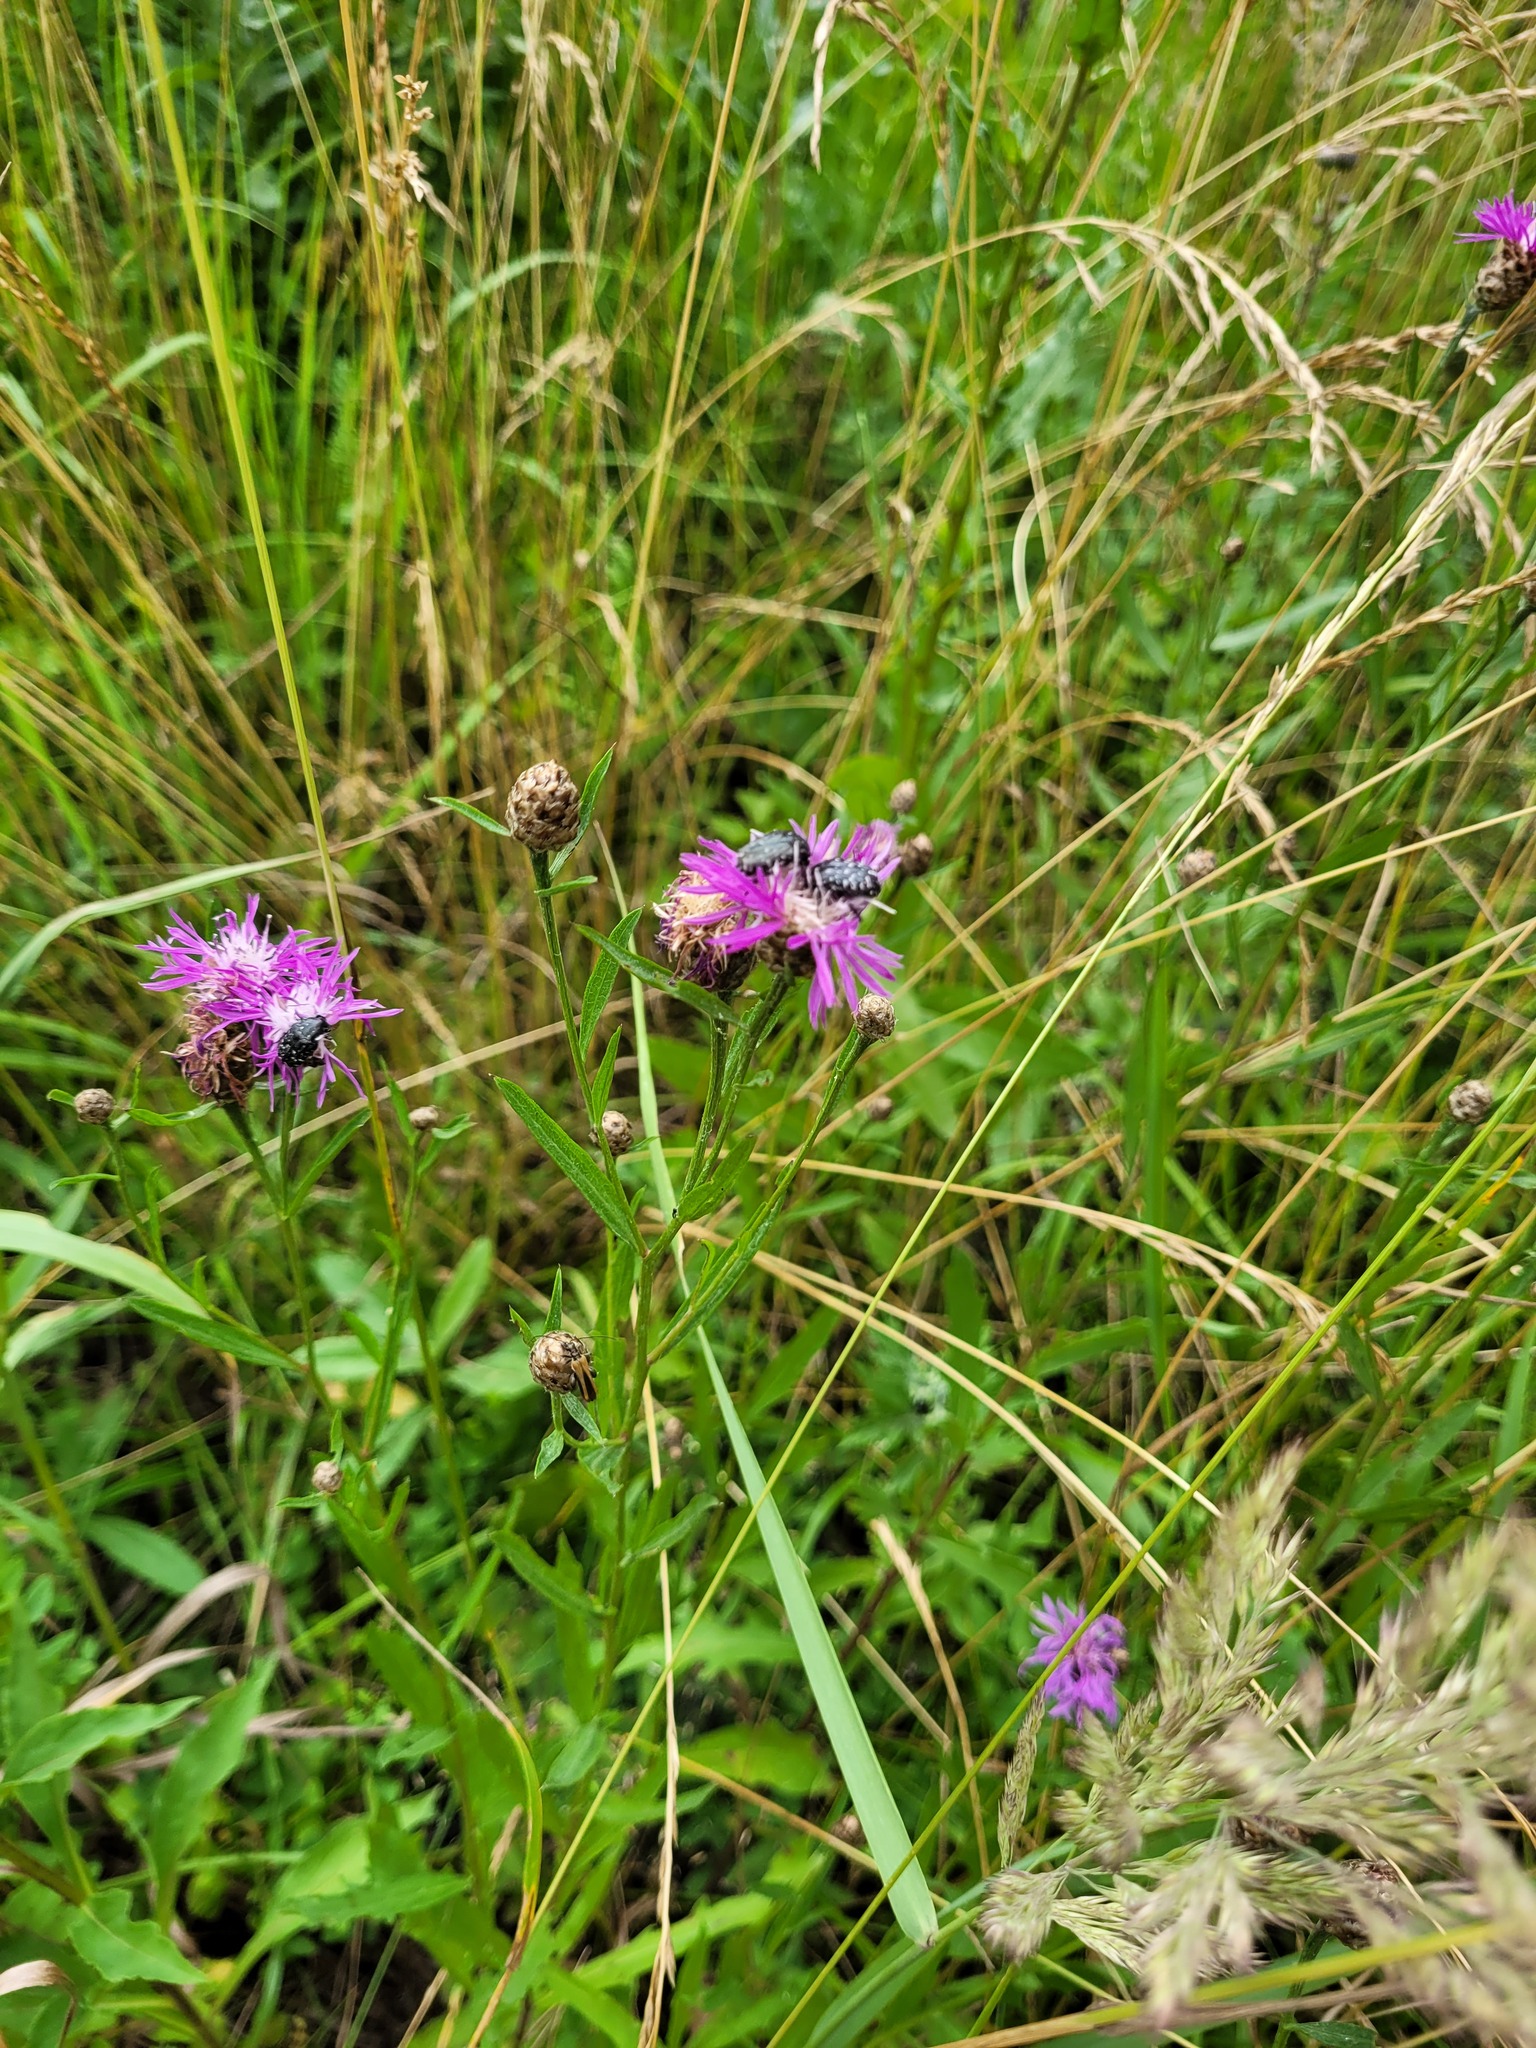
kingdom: Plantae
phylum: Tracheophyta
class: Magnoliopsida
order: Asterales
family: Asteraceae
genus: Centaurea
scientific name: Centaurea jacea
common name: Brown knapweed
